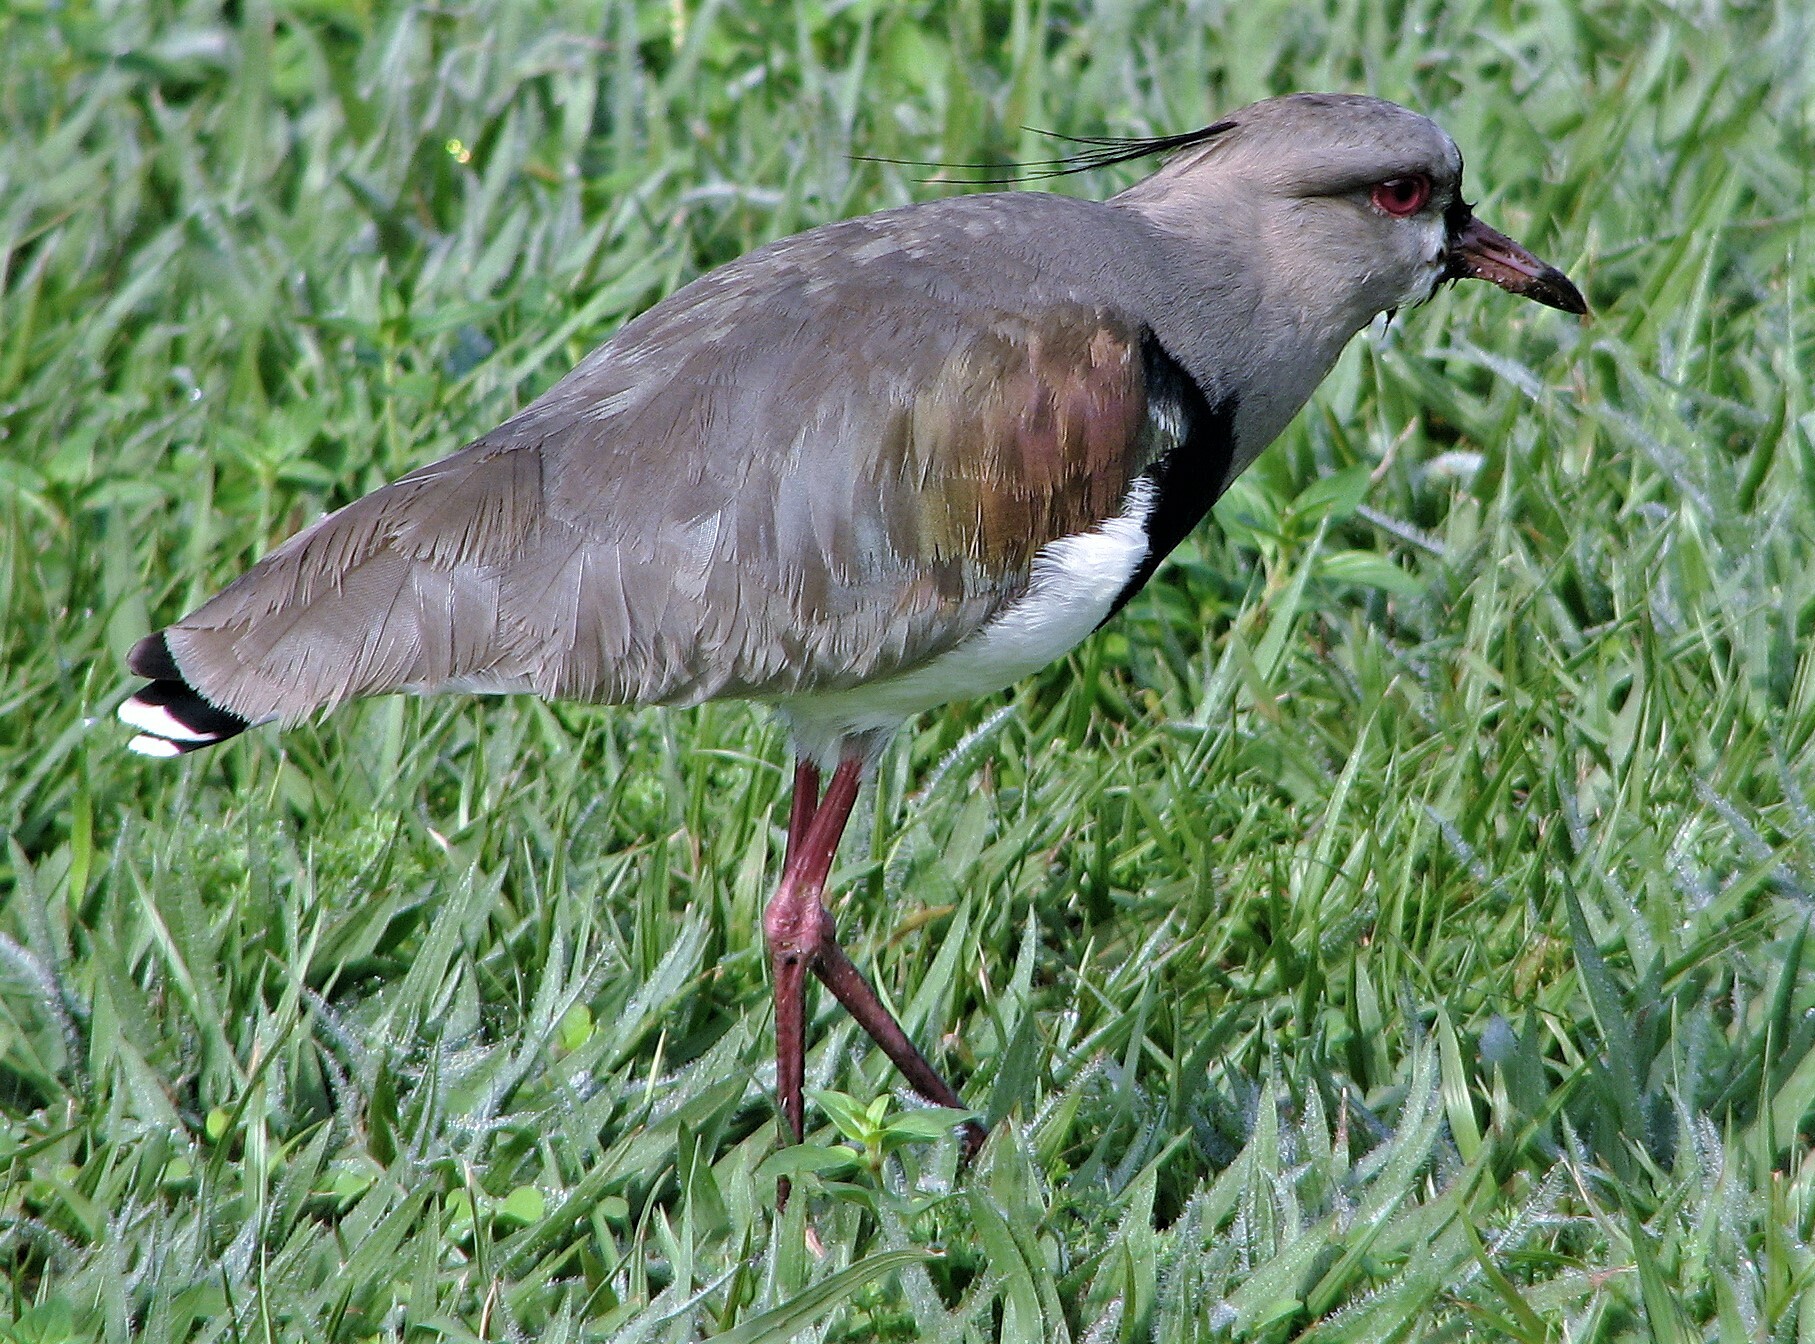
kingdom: Animalia
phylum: Chordata
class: Aves
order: Charadriiformes
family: Charadriidae
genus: Vanellus
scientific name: Vanellus chilensis
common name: Southern lapwing
